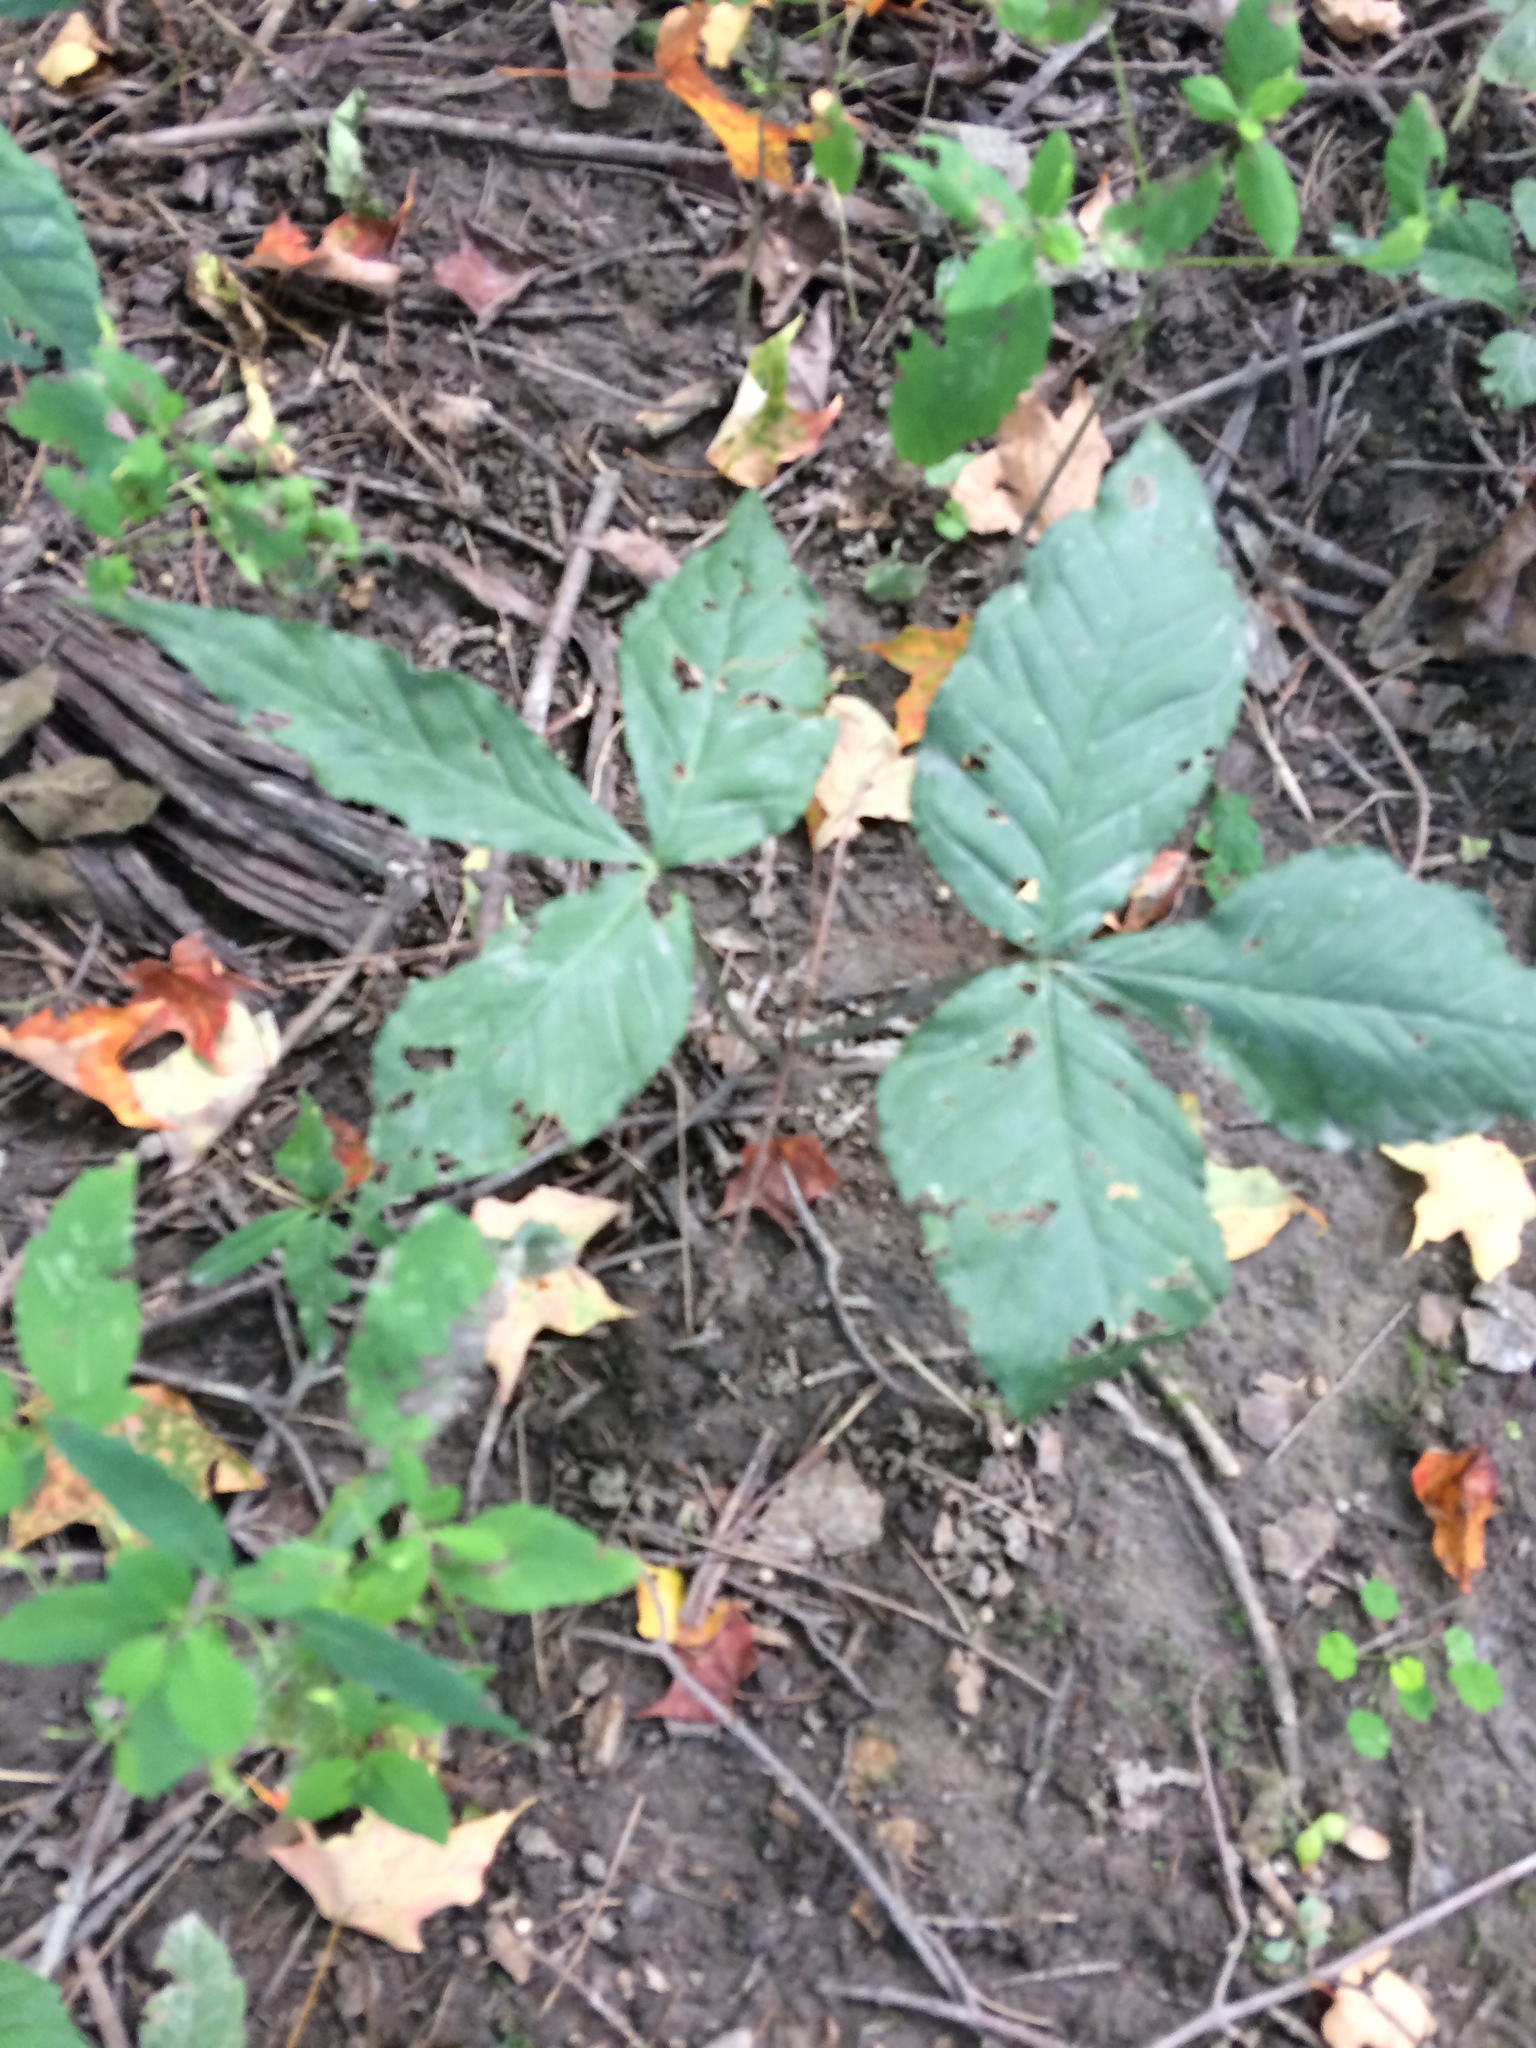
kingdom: Plantae
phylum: Tracheophyta
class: Liliopsida
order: Alismatales
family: Araceae
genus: Arisaema
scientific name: Arisaema triphyllum
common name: Jack-in-the-pulpit
